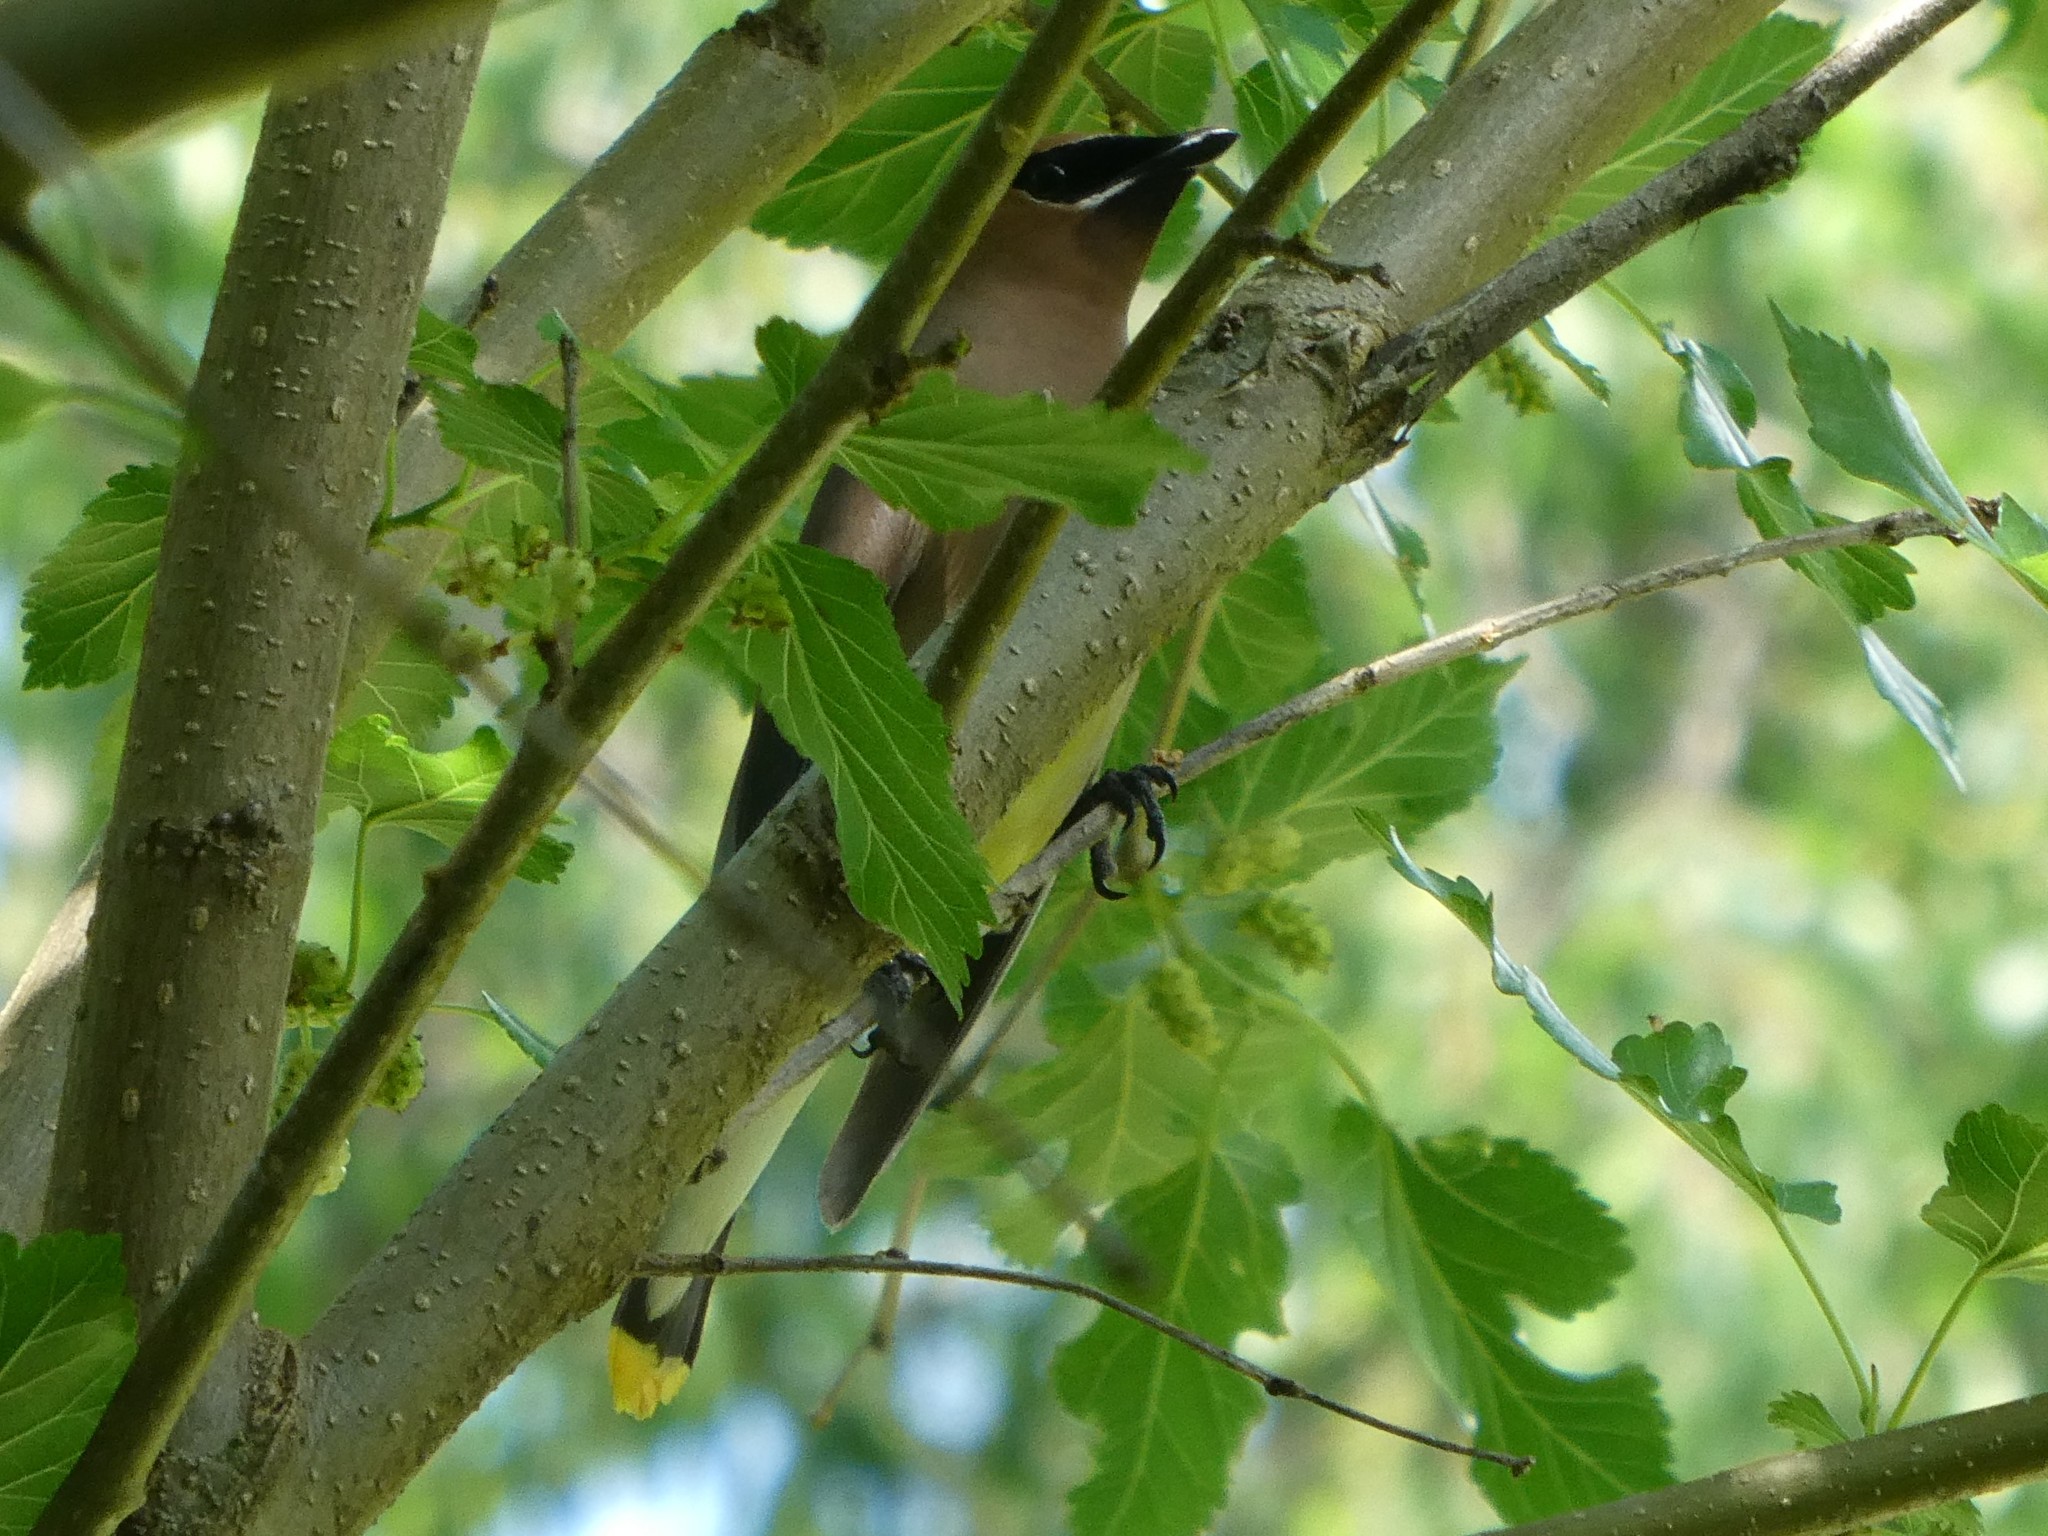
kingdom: Animalia
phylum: Chordata
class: Aves
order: Passeriformes
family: Bombycillidae
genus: Bombycilla
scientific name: Bombycilla cedrorum
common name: Cedar waxwing
